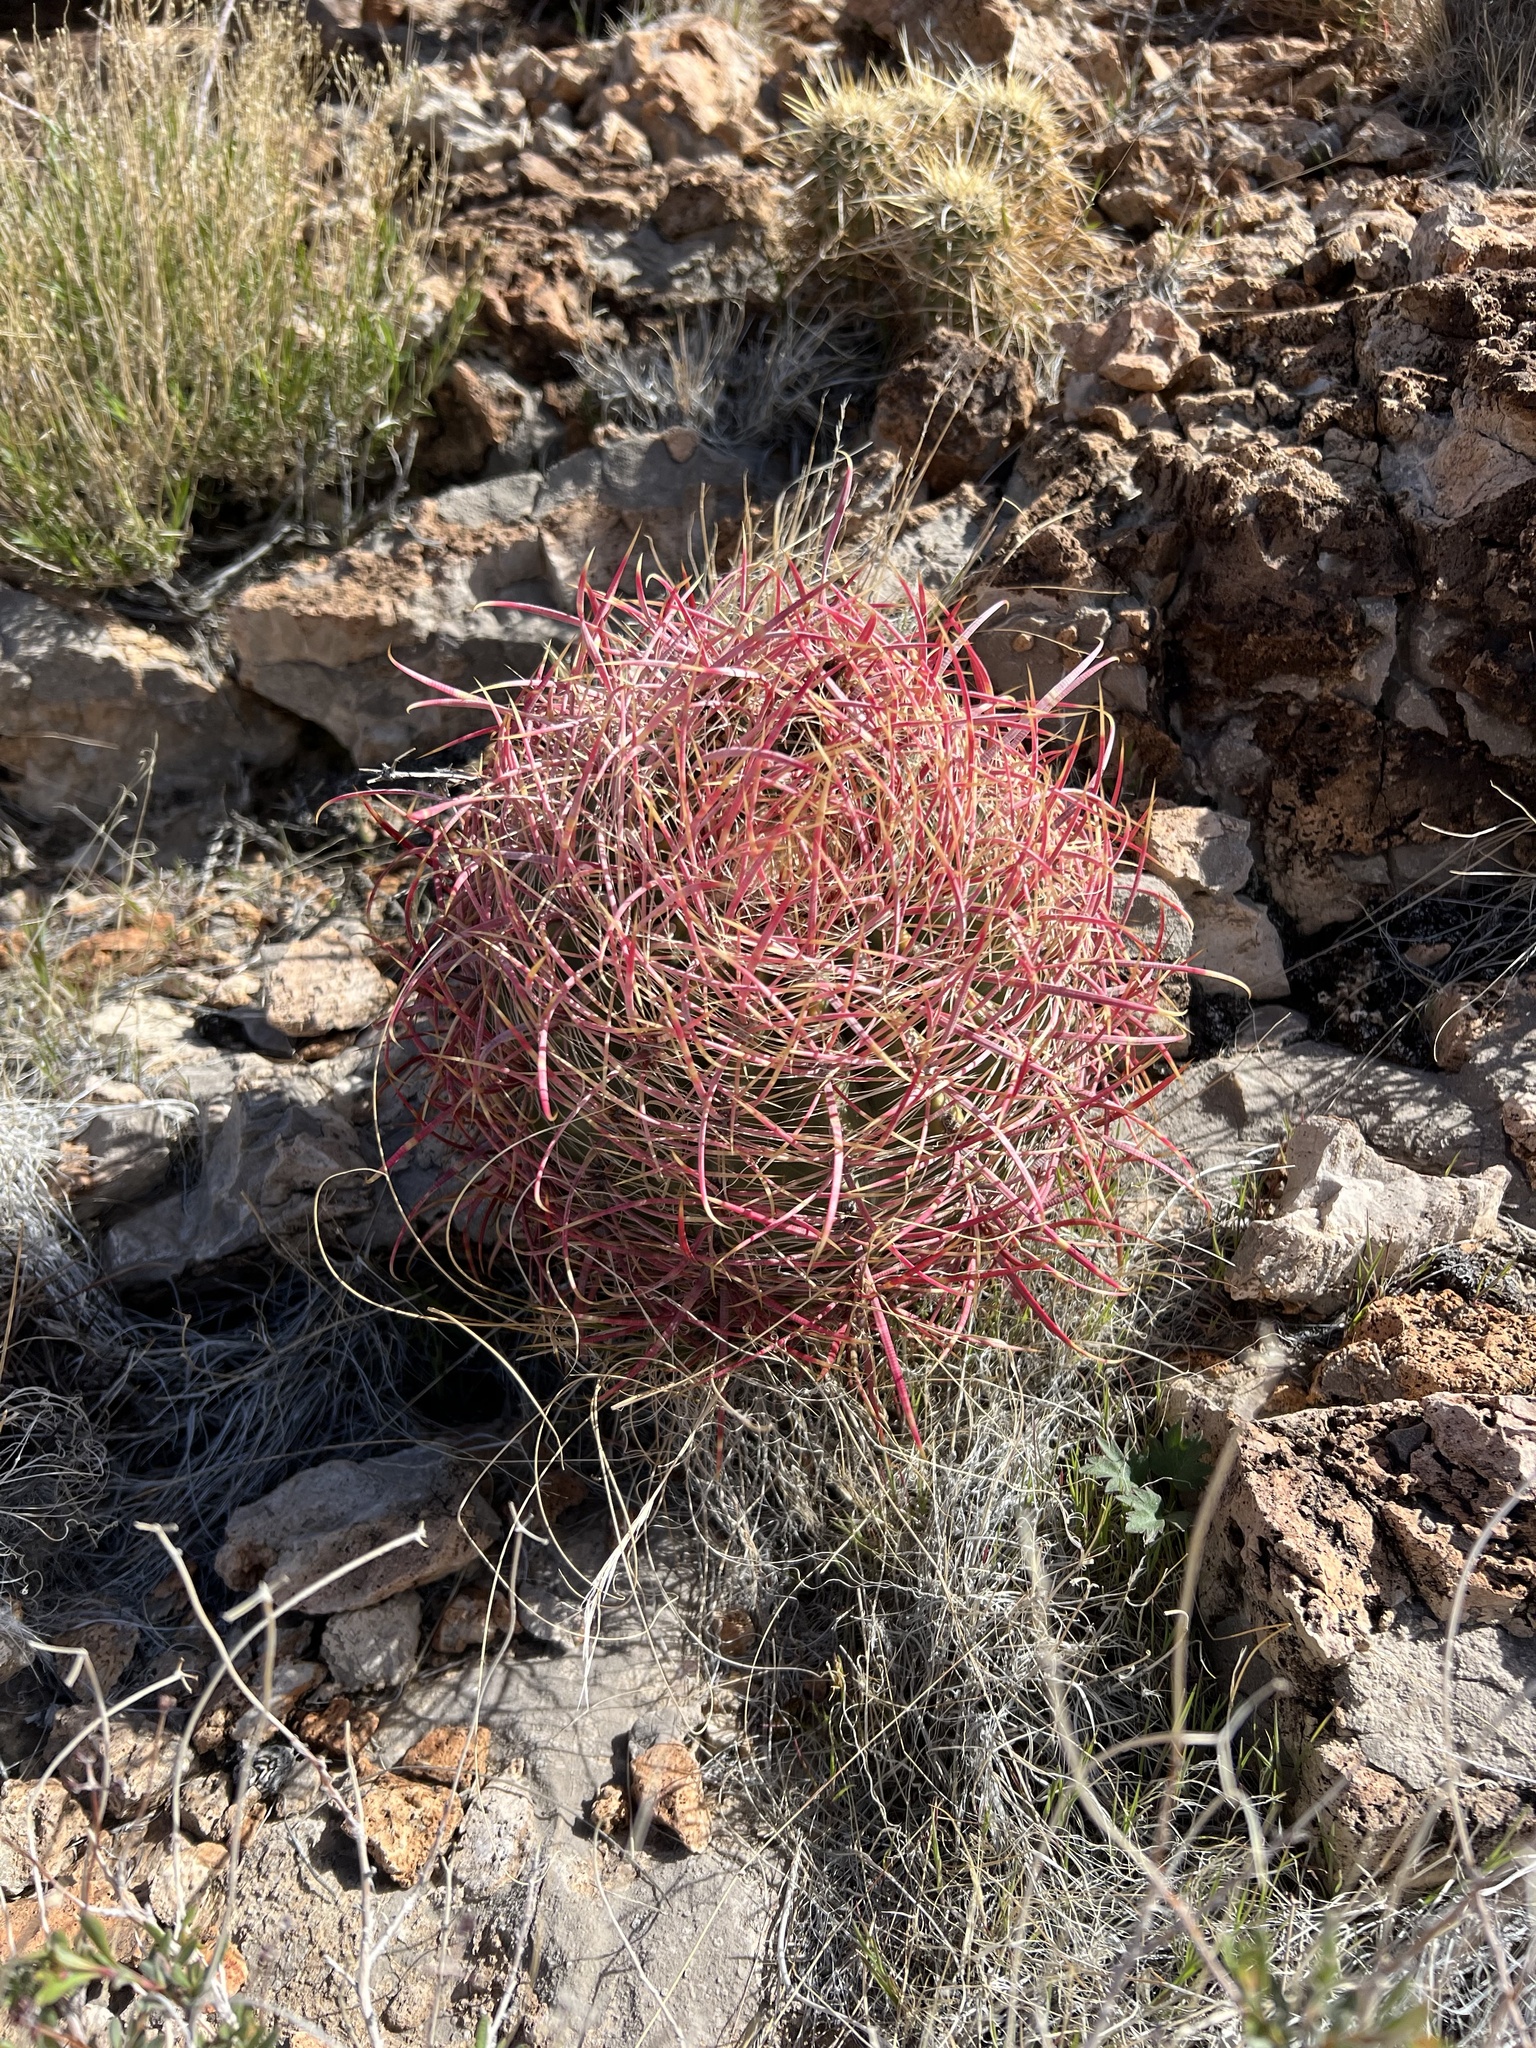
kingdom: Plantae
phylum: Tracheophyta
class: Magnoliopsida
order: Caryophyllales
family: Cactaceae
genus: Ferocactus
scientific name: Ferocactus cylindraceus
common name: California barrel cactus
